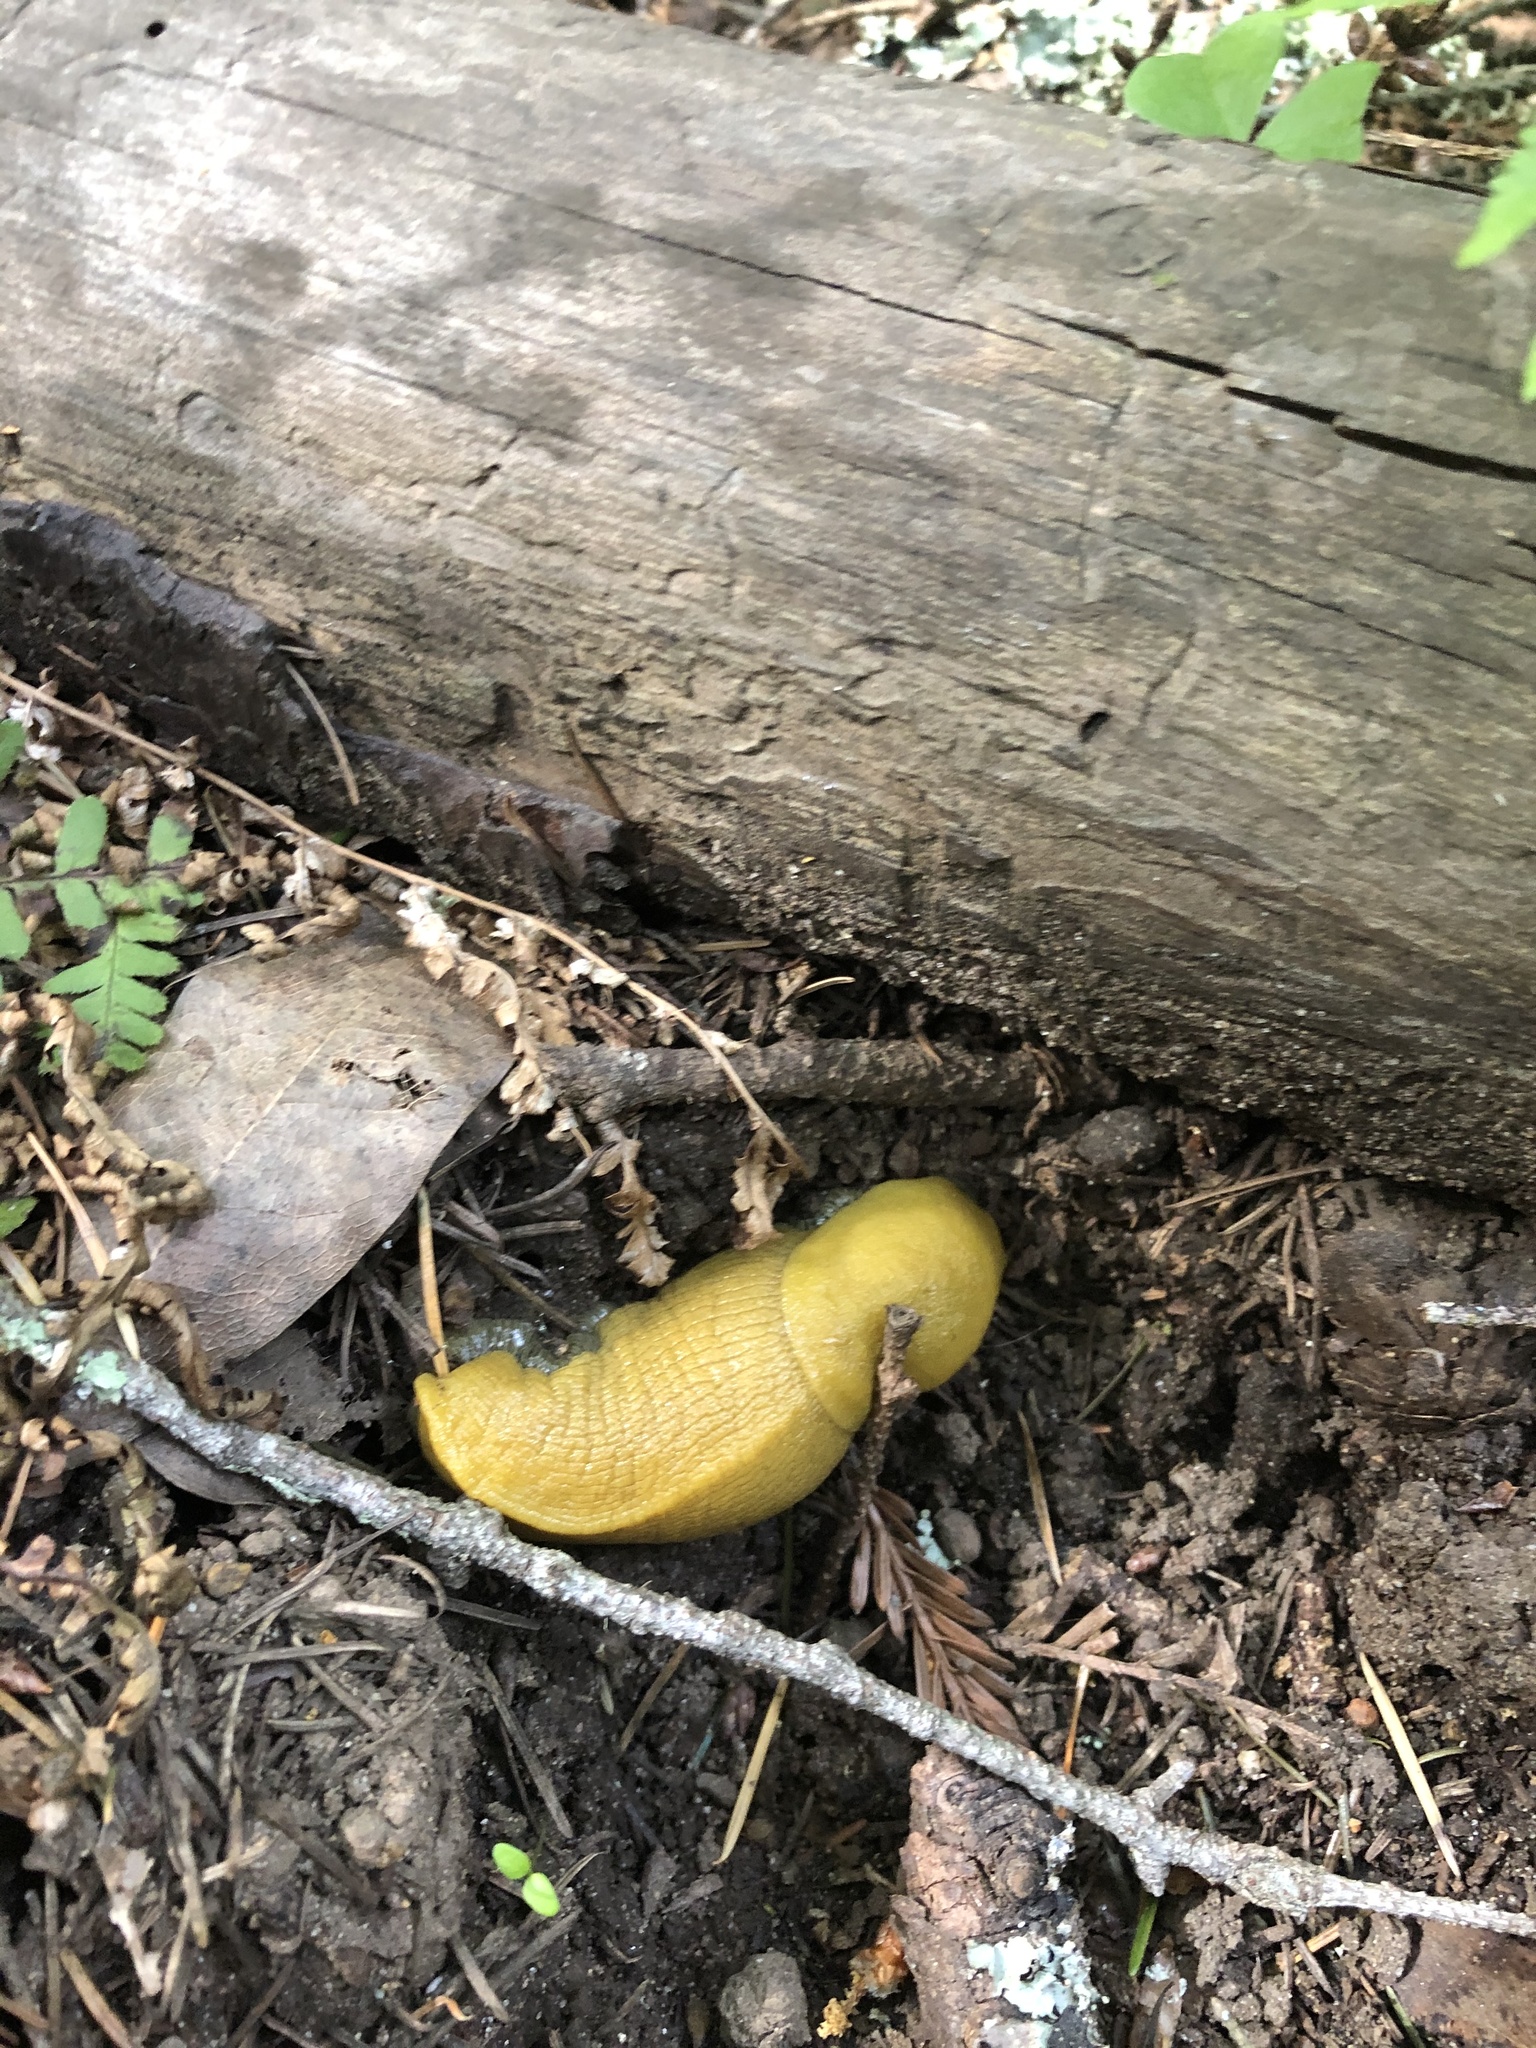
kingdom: Animalia
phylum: Mollusca
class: Gastropoda
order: Stylommatophora
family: Ariolimacidae
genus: Ariolimax
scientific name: Ariolimax dolichophallus
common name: Slender banana slug
